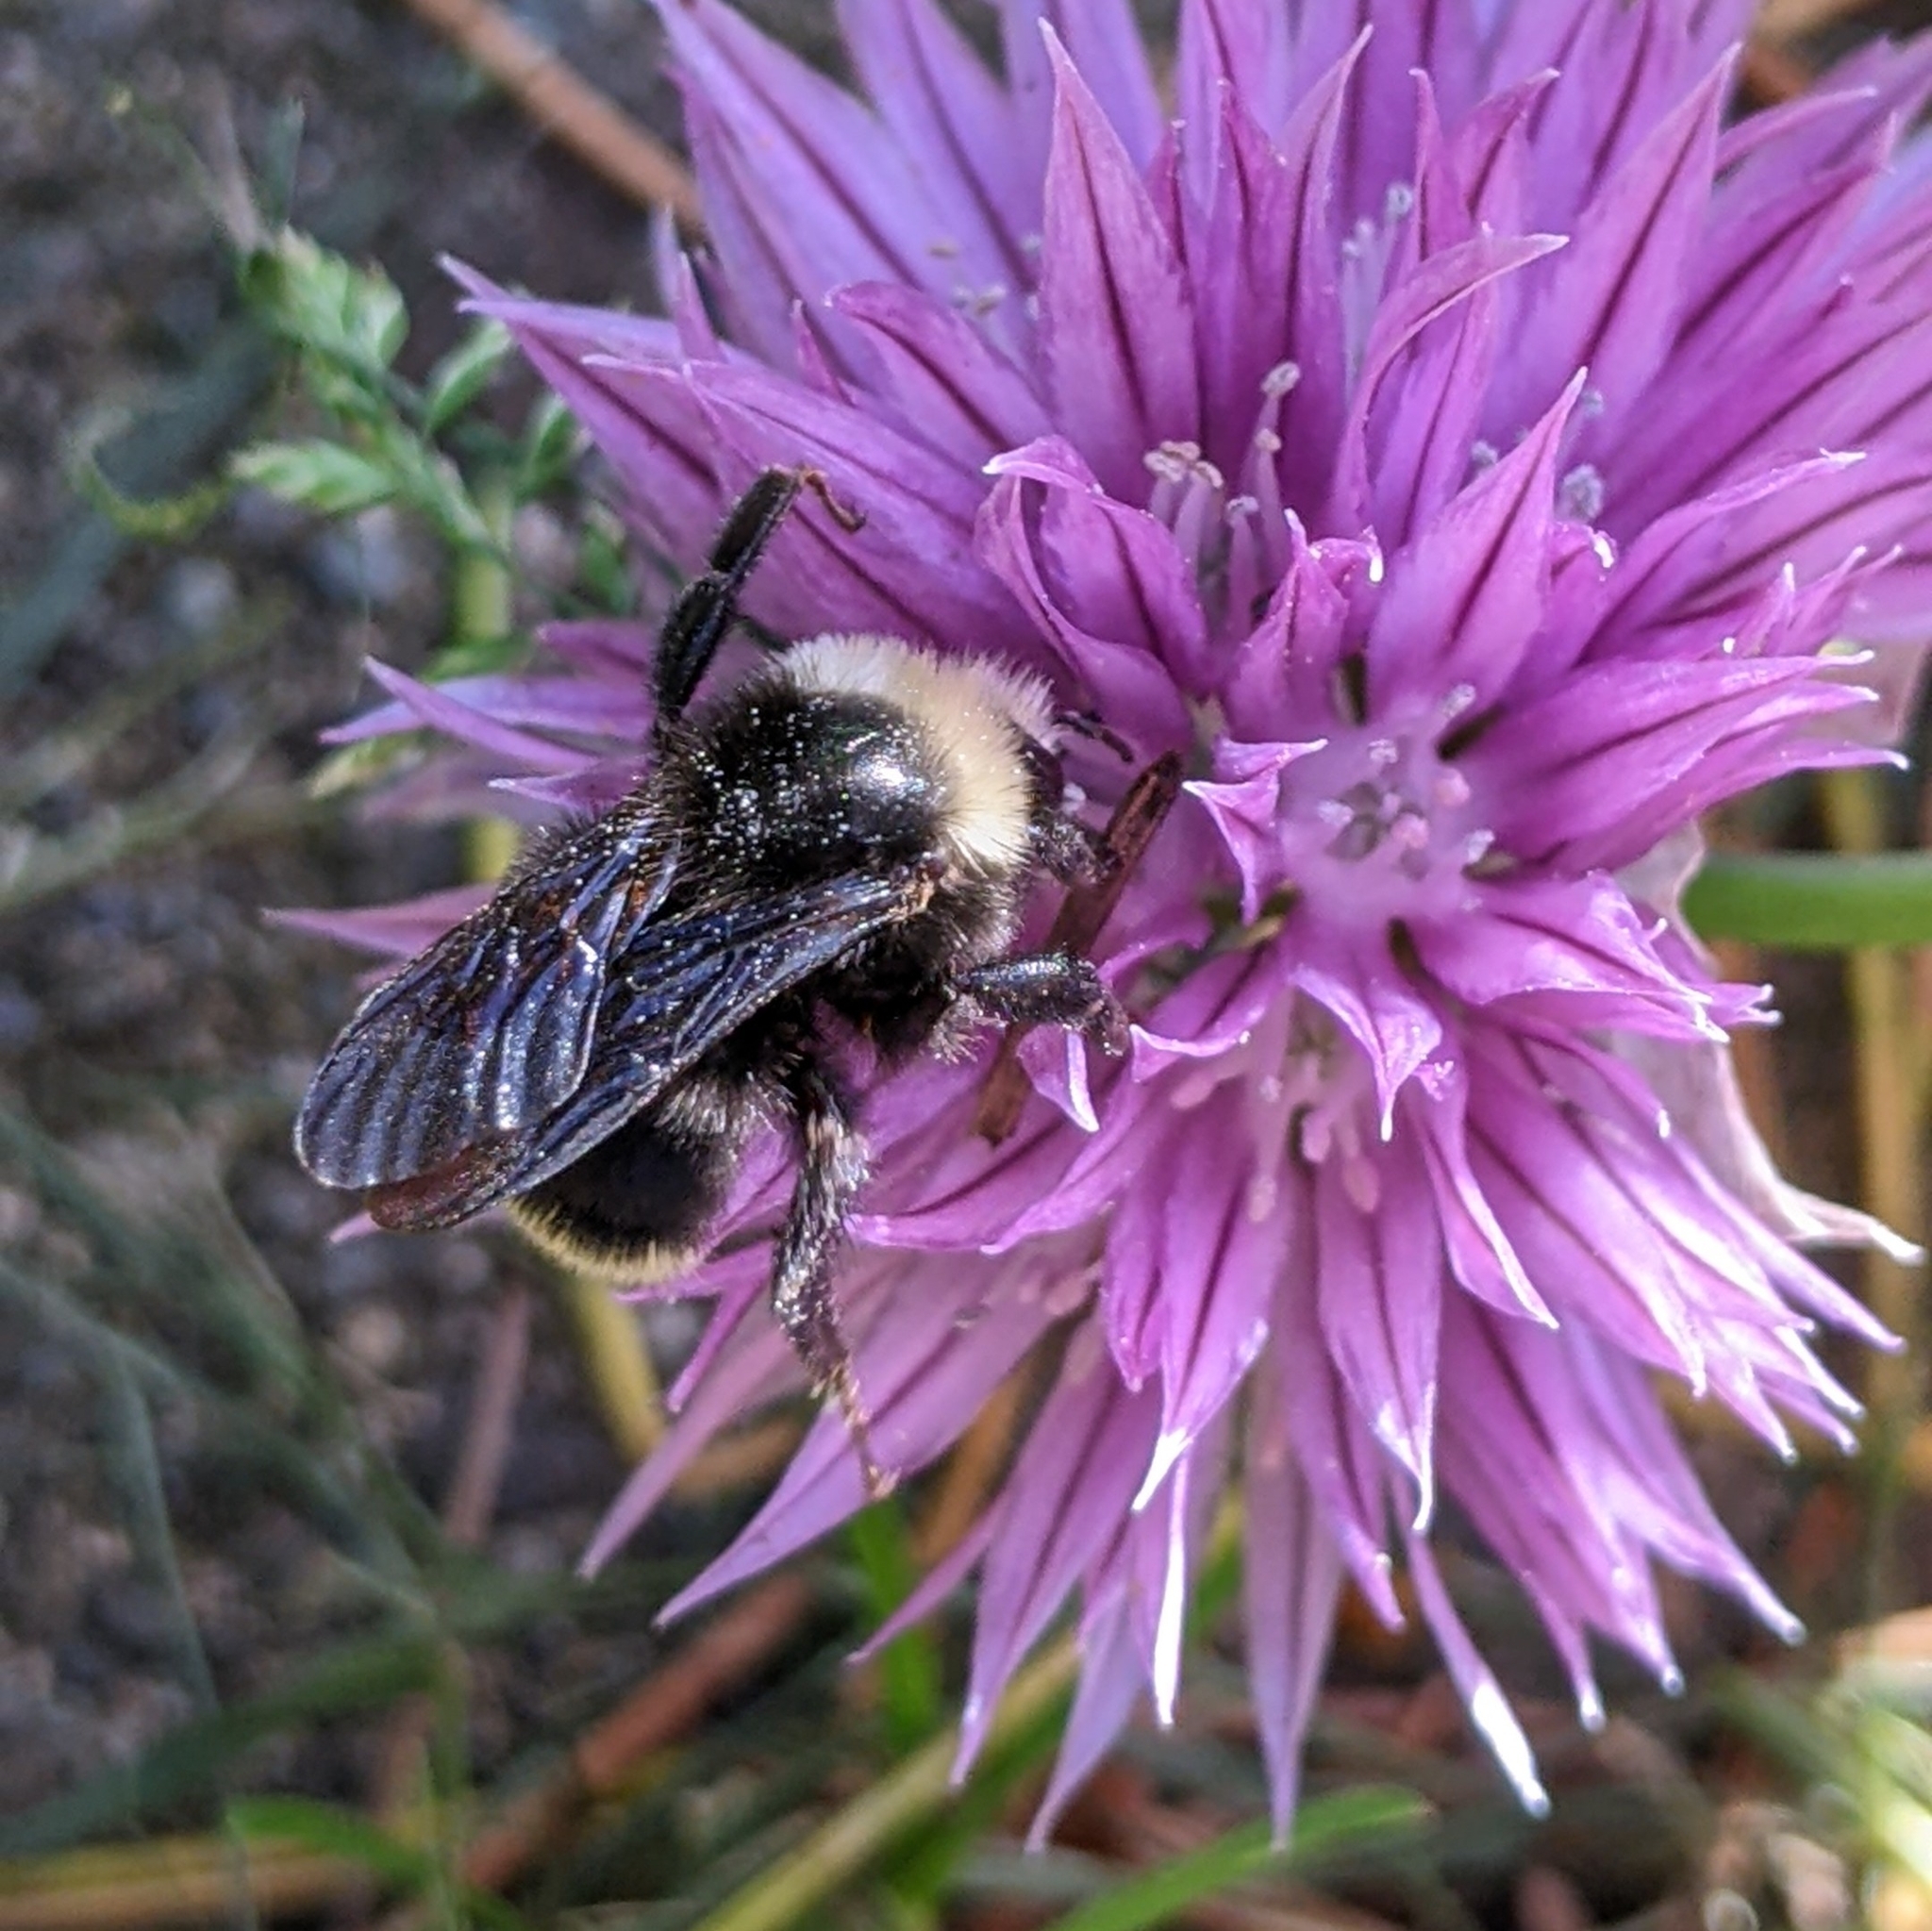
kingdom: Animalia
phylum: Arthropoda
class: Insecta
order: Hymenoptera
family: Apidae
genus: Bombus
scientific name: Bombus vosnesenskii
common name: Vosnesensky bumble bee
